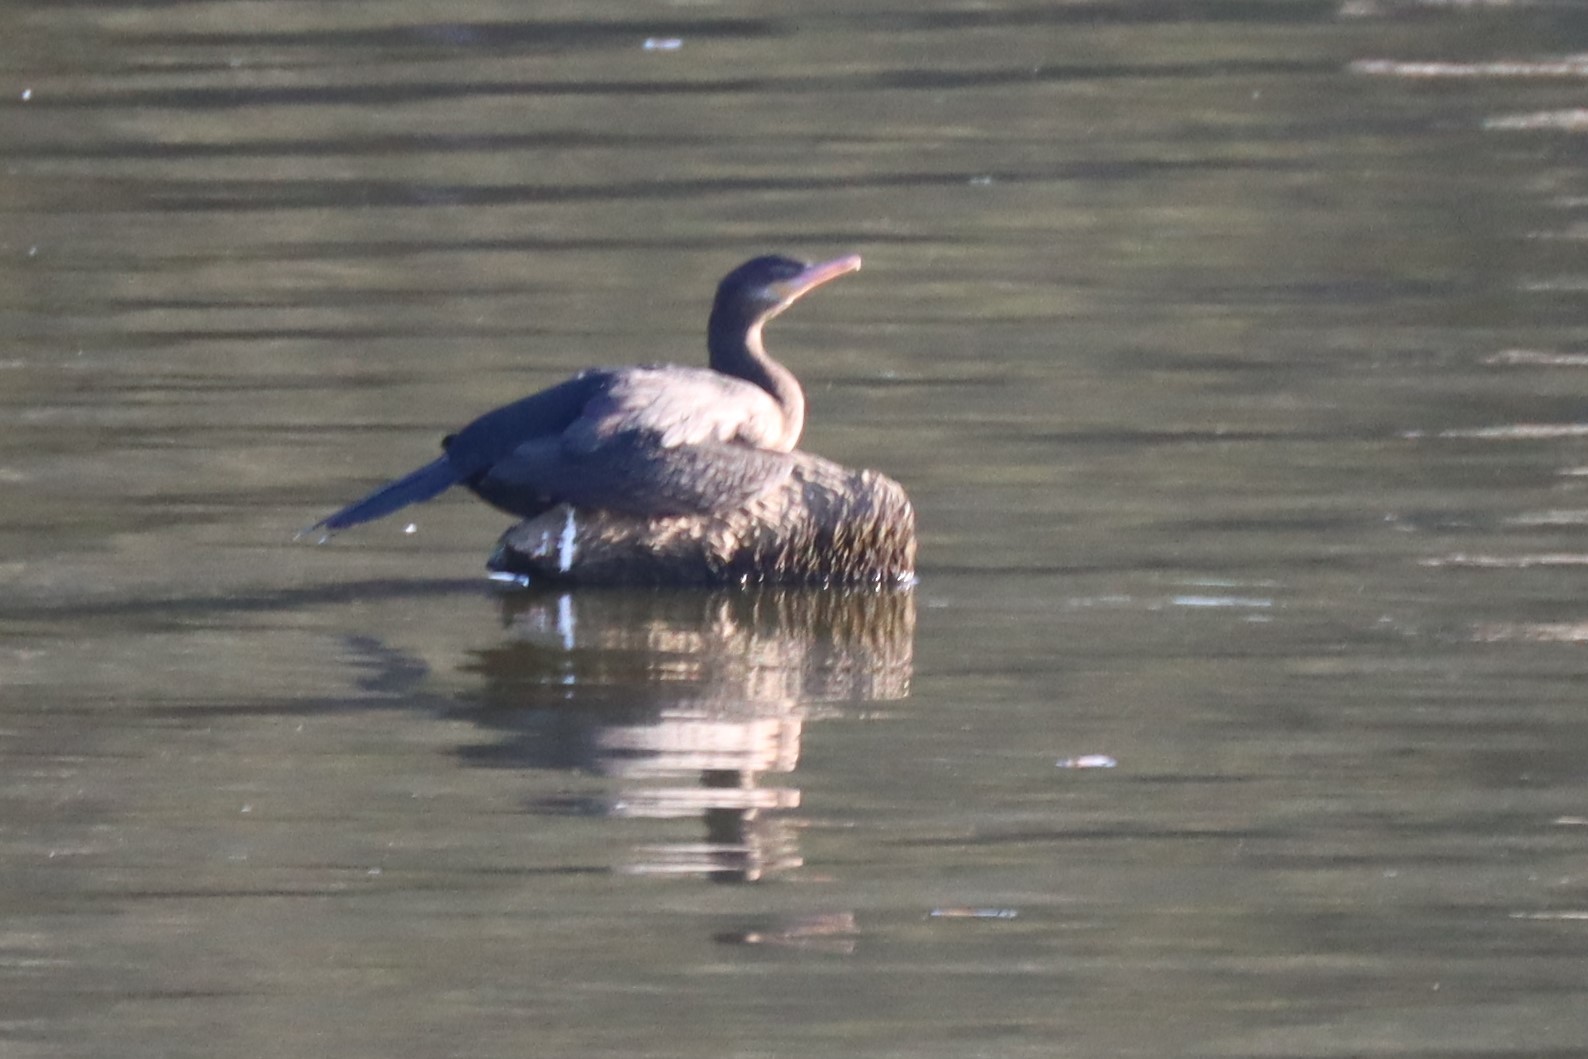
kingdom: Animalia
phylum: Chordata
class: Aves
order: Suliformes
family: Phalacrocoracidae
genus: Phalacrocorax
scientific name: Phalacrocorax brasilianus
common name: Neotropic cormorant
